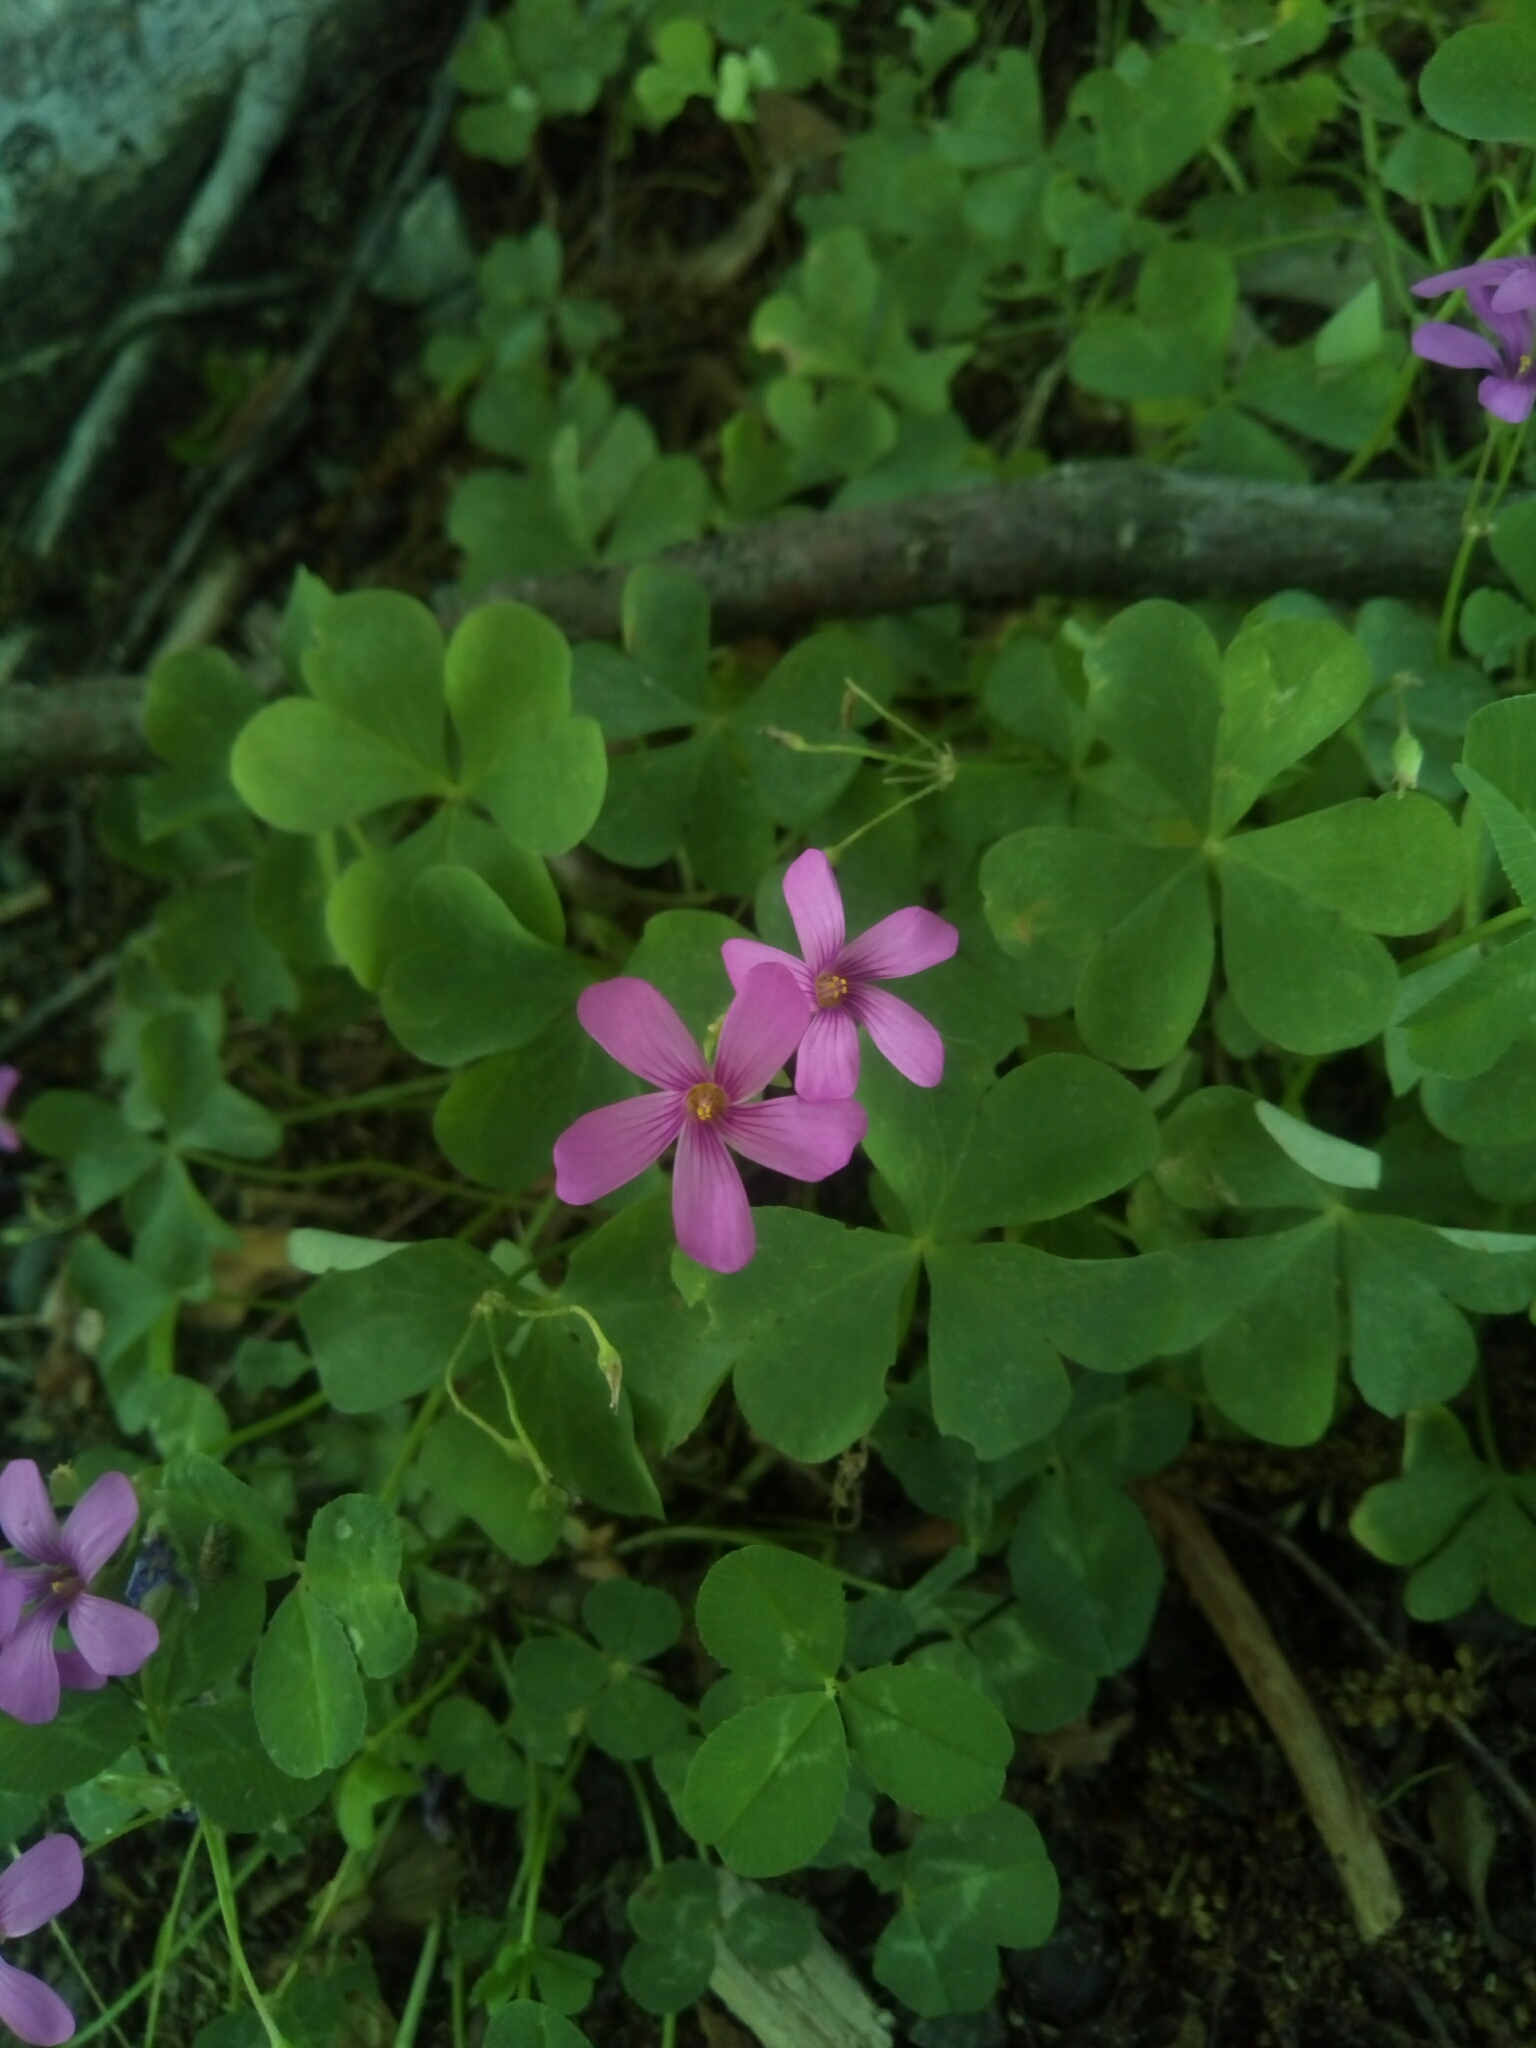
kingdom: Plantae
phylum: Tracheophyta
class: Magnoliopsida
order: Oxalidales
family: Oxalidaceae
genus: Oxalis
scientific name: Oxalis articulata
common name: Pink-sorrel
